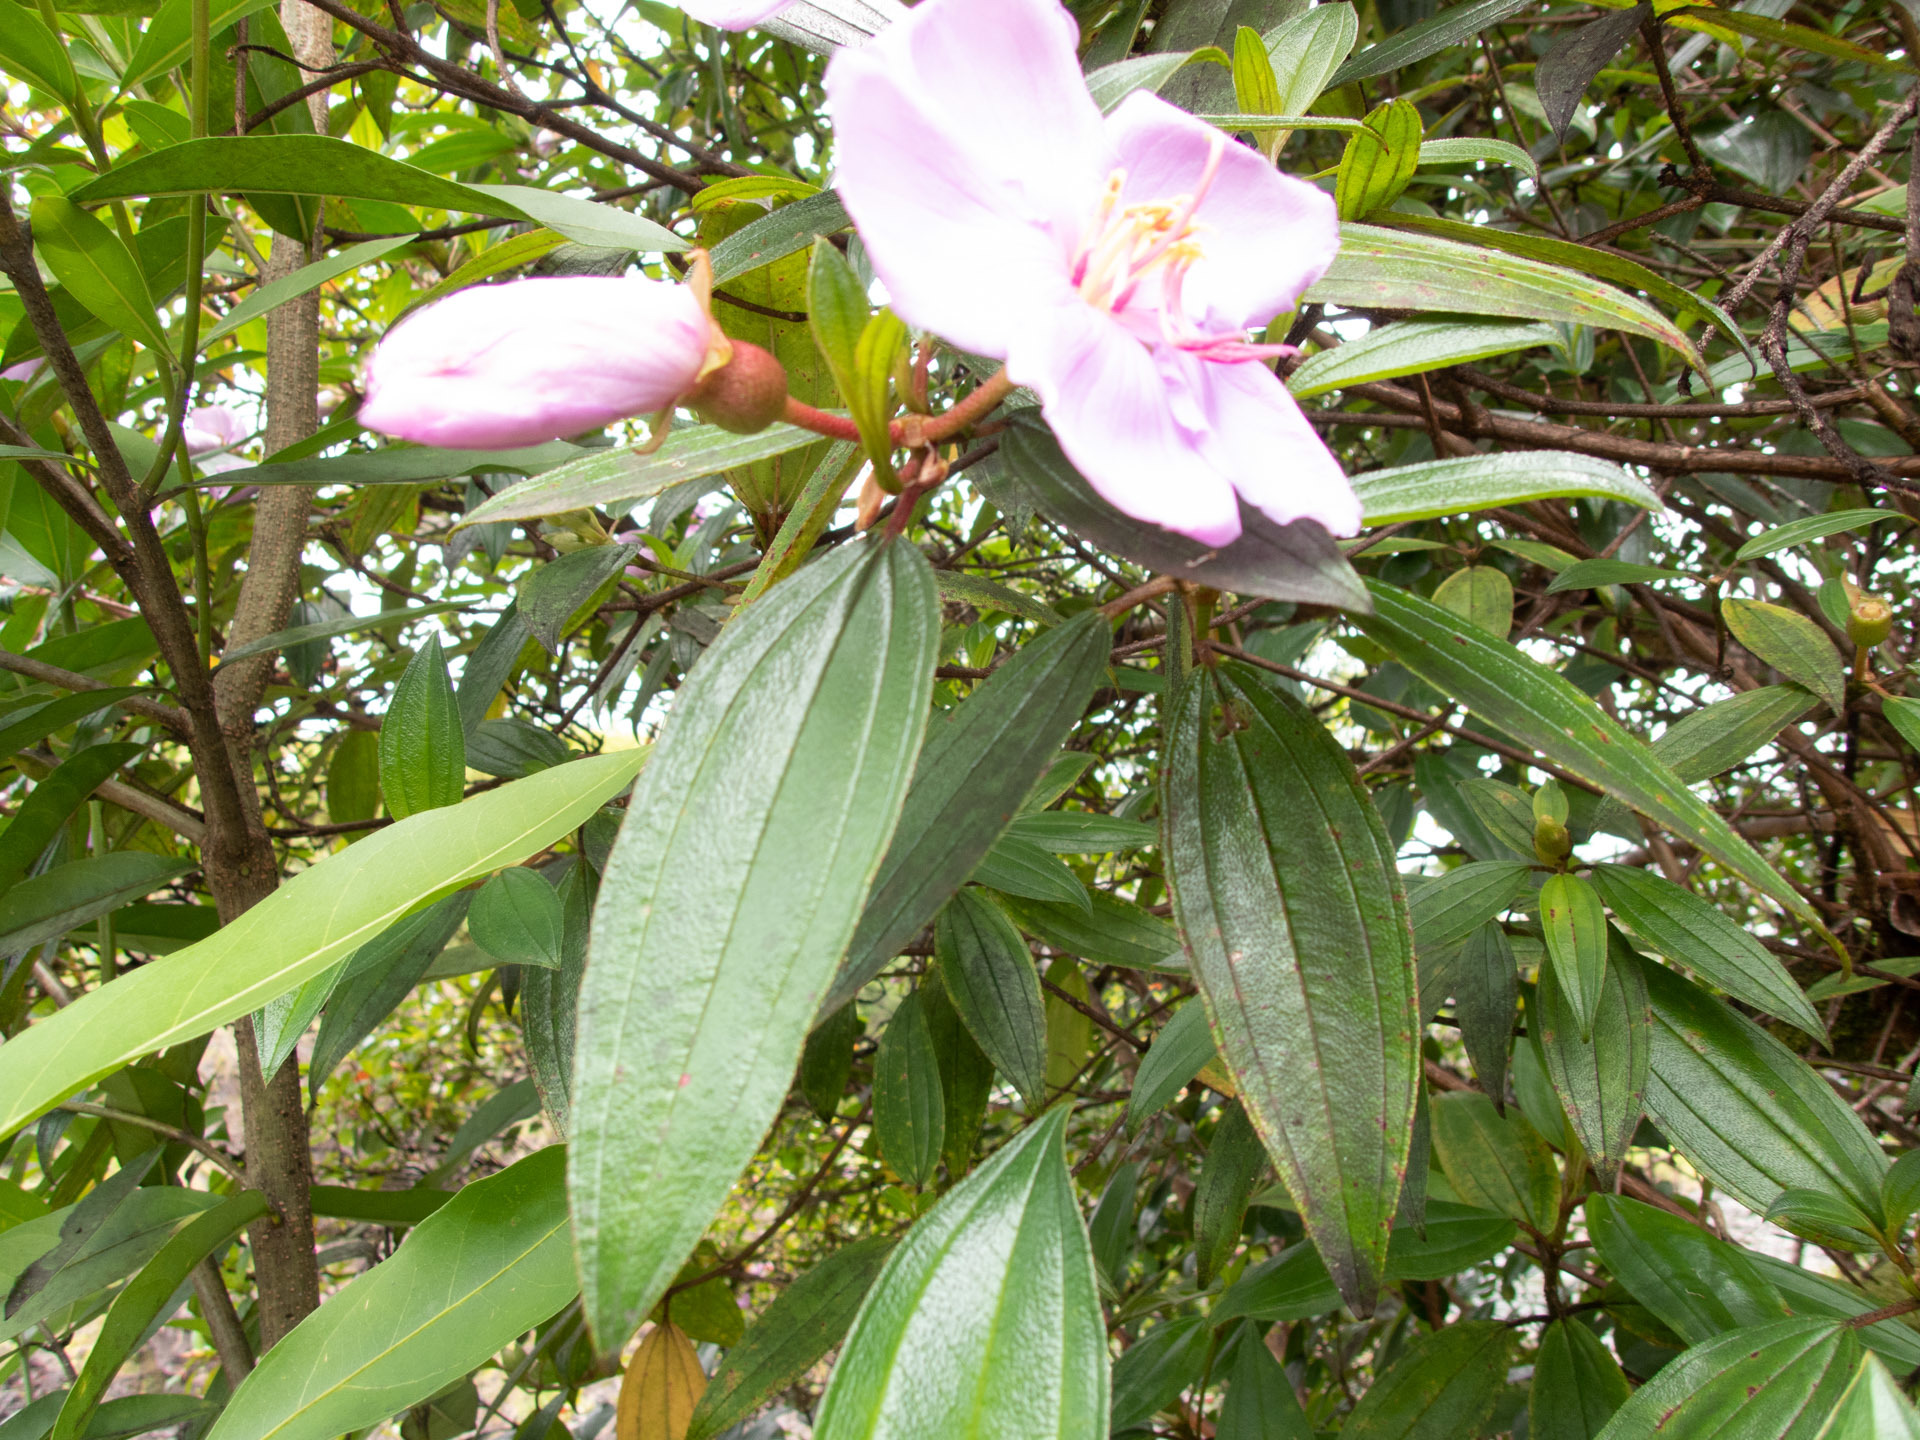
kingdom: Plantae
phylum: Tracheophyta
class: Magnoliopsida
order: Myrtales
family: Melastomataceae
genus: Melastoma
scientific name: Melastoma malabathricum
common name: Indian-rhododendron
